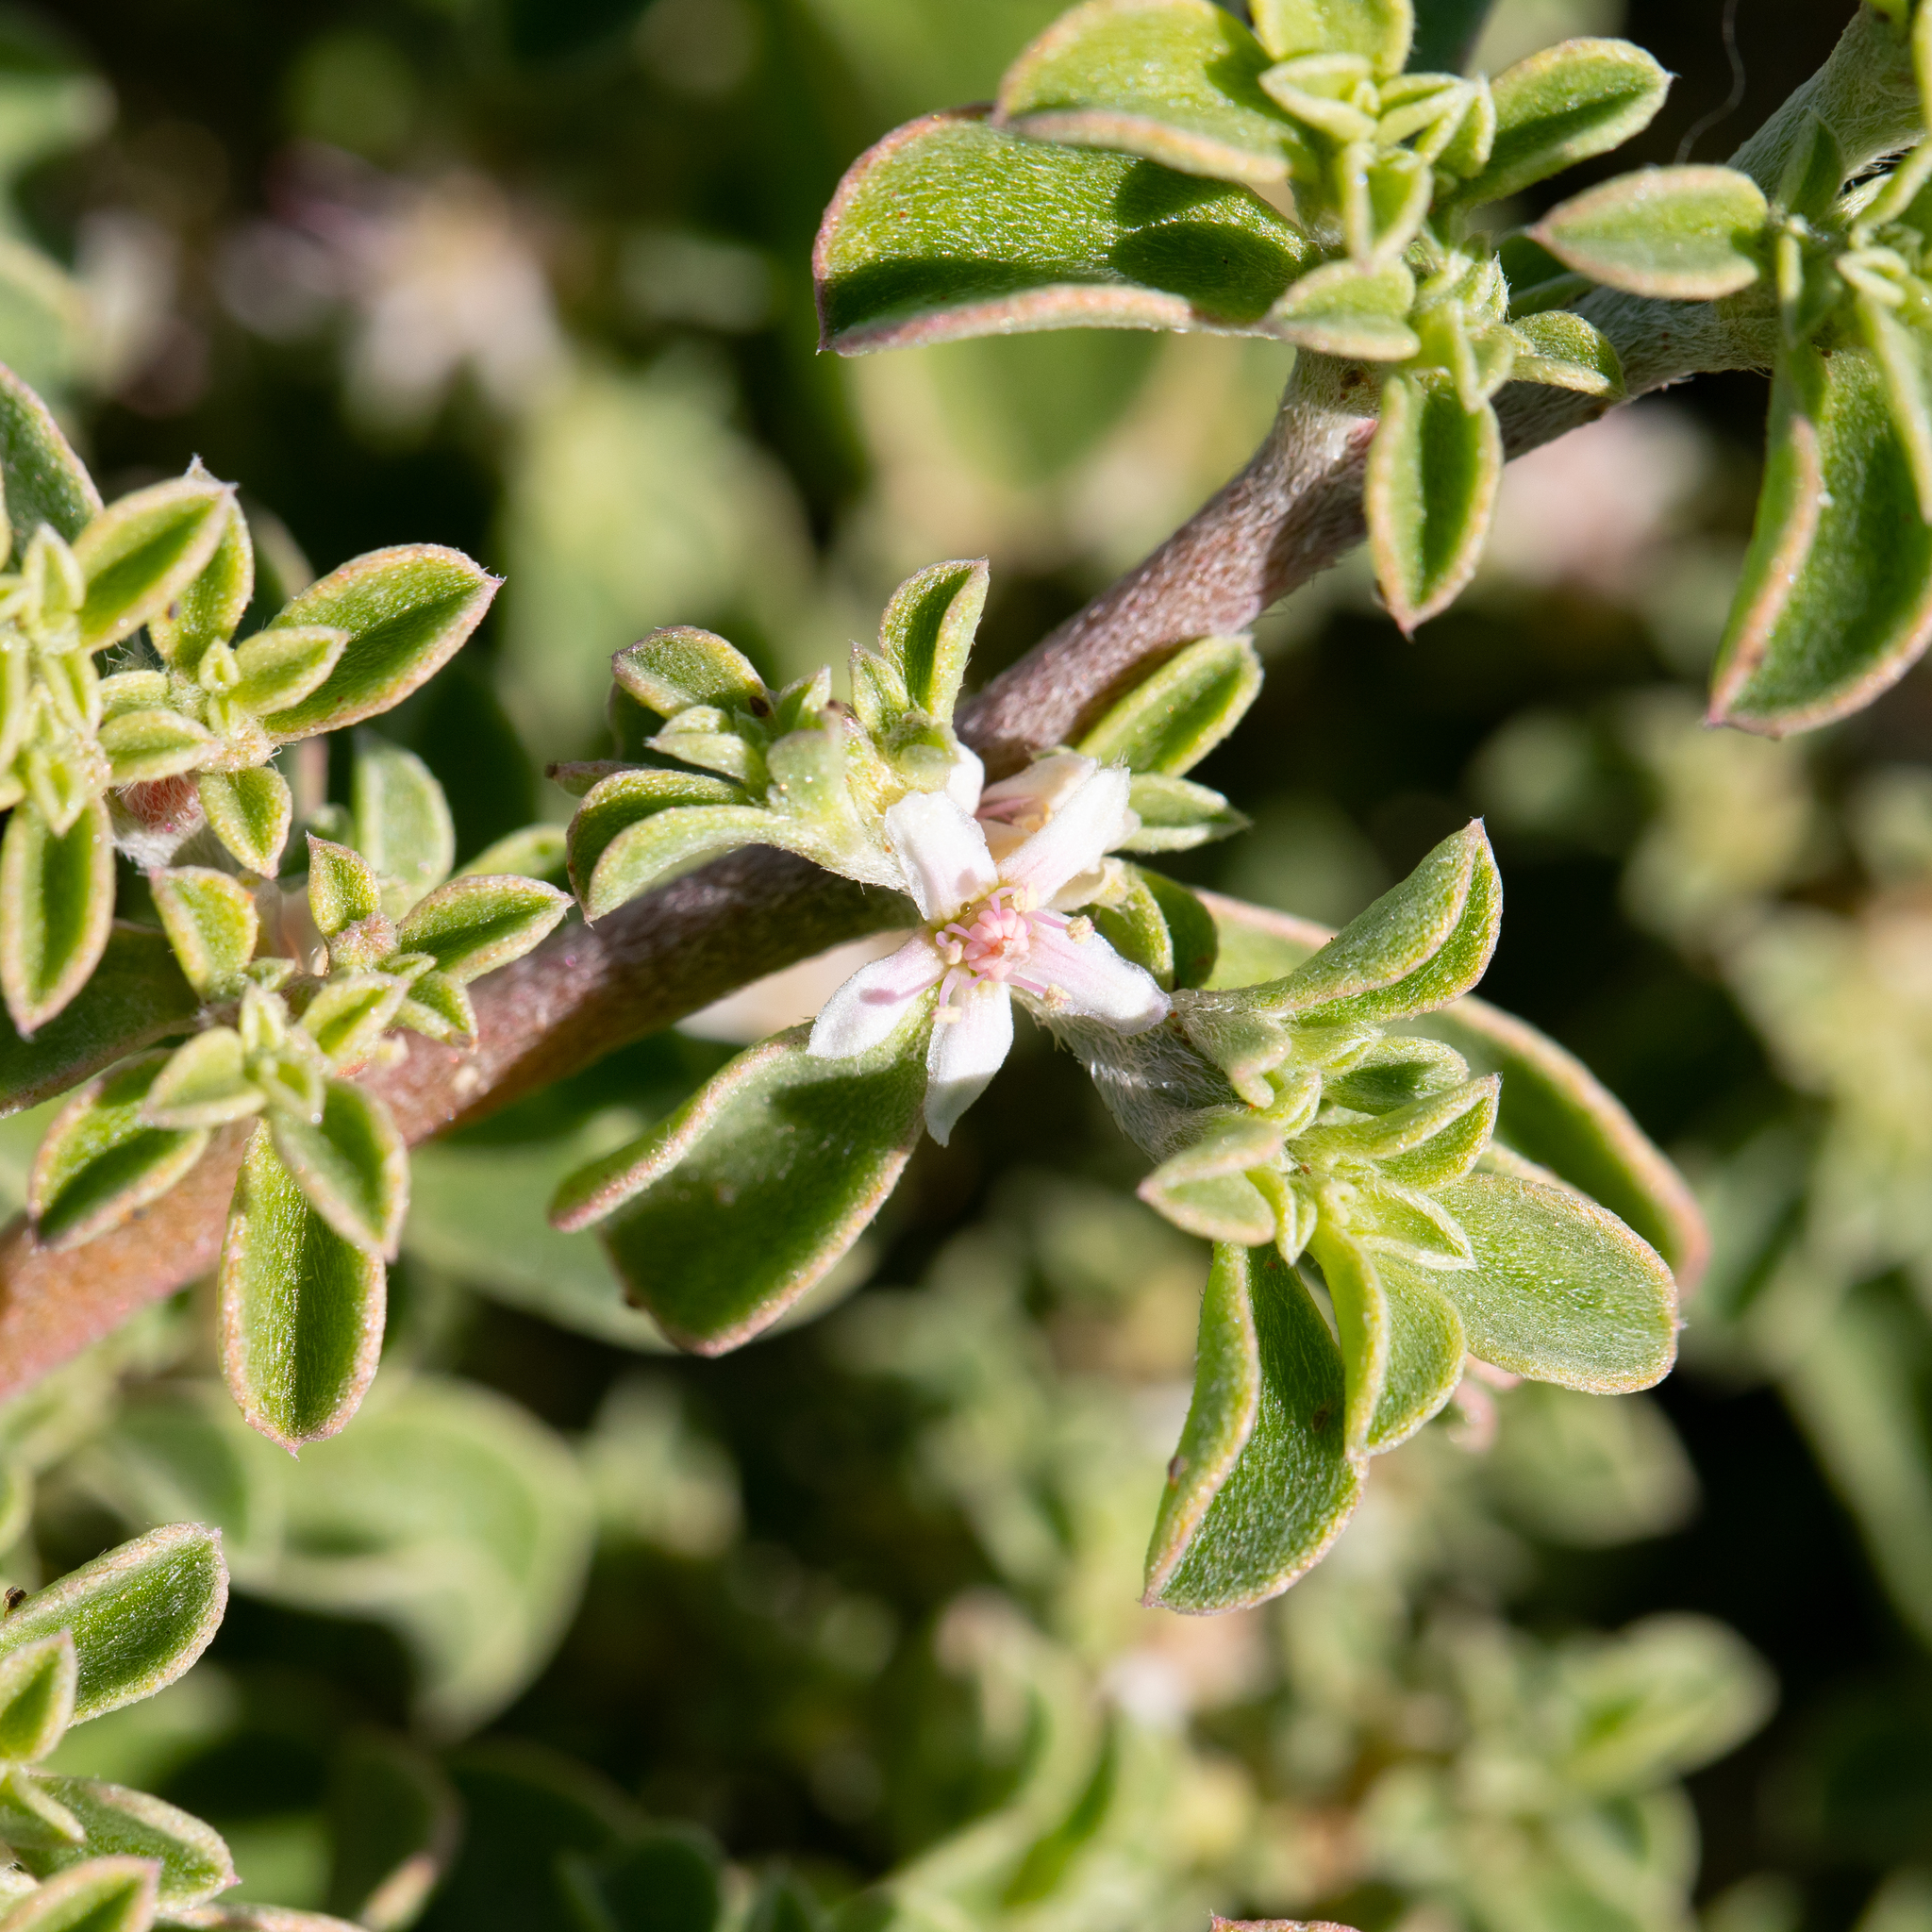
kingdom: Plantae
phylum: Tracheophyta
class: Magnoliopsida
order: Caryophyllales
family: Aizoaceae
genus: Aizoon
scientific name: Aizoon pubescens
